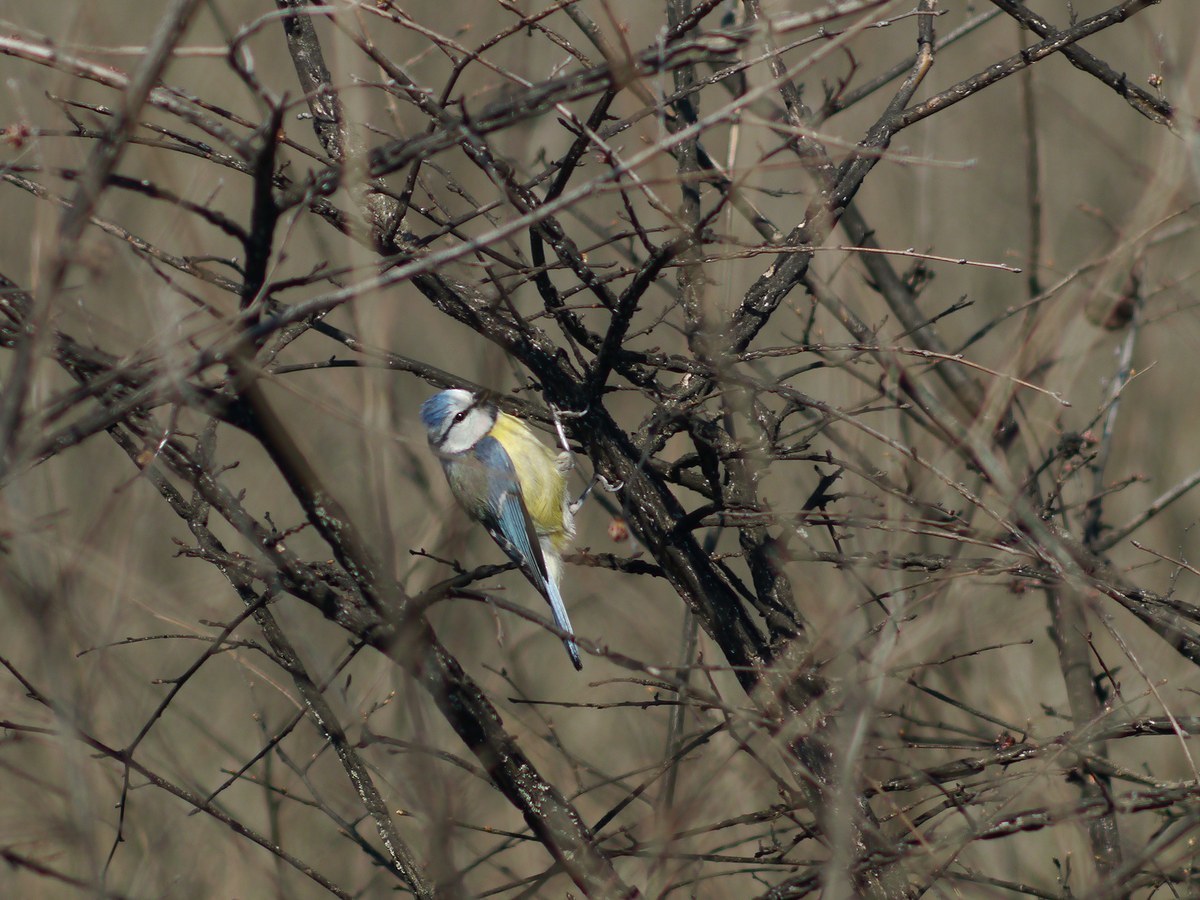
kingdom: Animalia
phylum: Chordata
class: Aves
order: Passeriformes
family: Paridae
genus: Cyanistes
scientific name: Cyanistes caeruleus
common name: Eurasian blue tit
